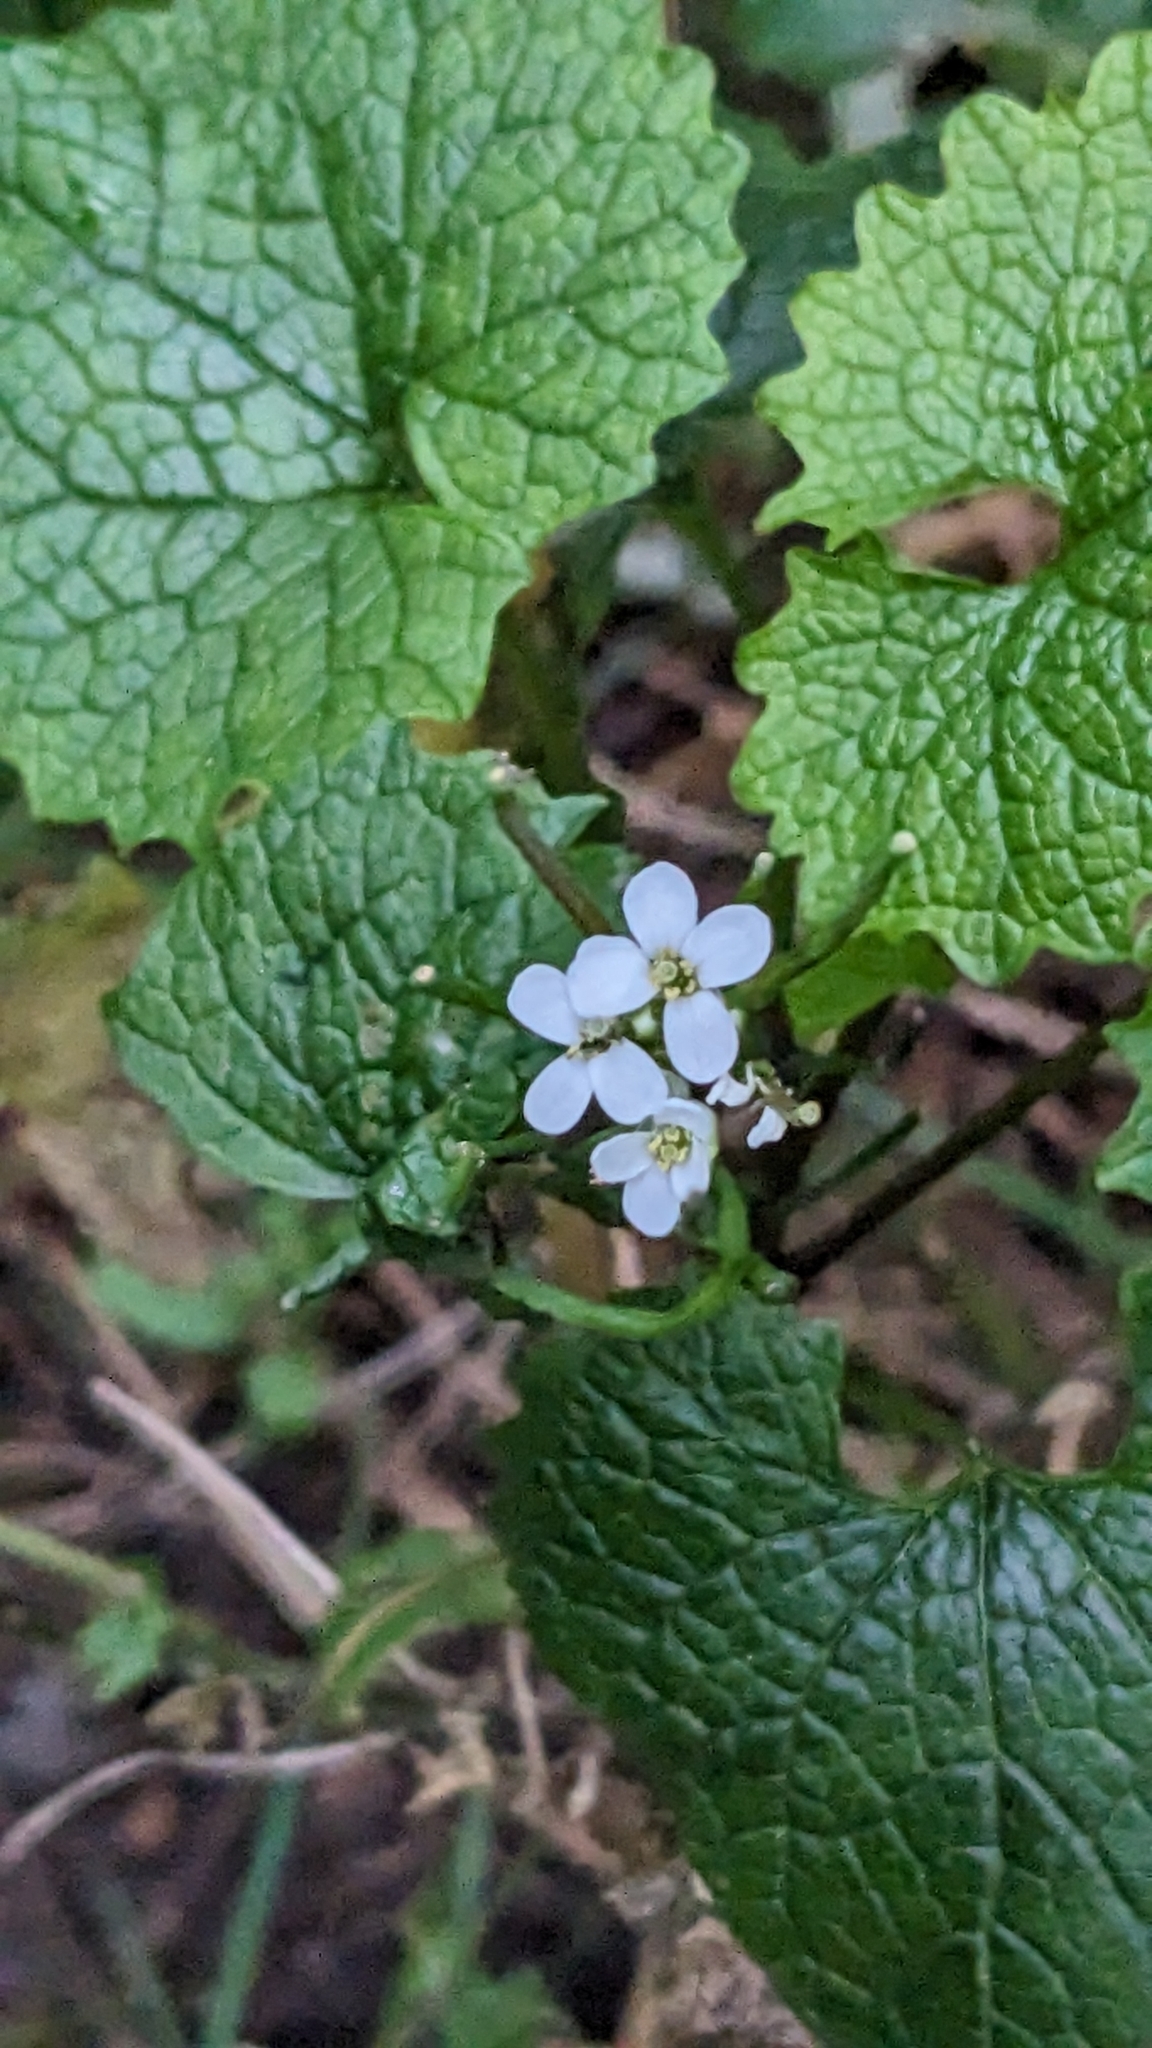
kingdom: Plantae
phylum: Tracheophyta
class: Magnoliopsida
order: Brassicales
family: Brassicaceae
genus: Alliaria
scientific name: Alliaria petiolata
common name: Garlic mustard
